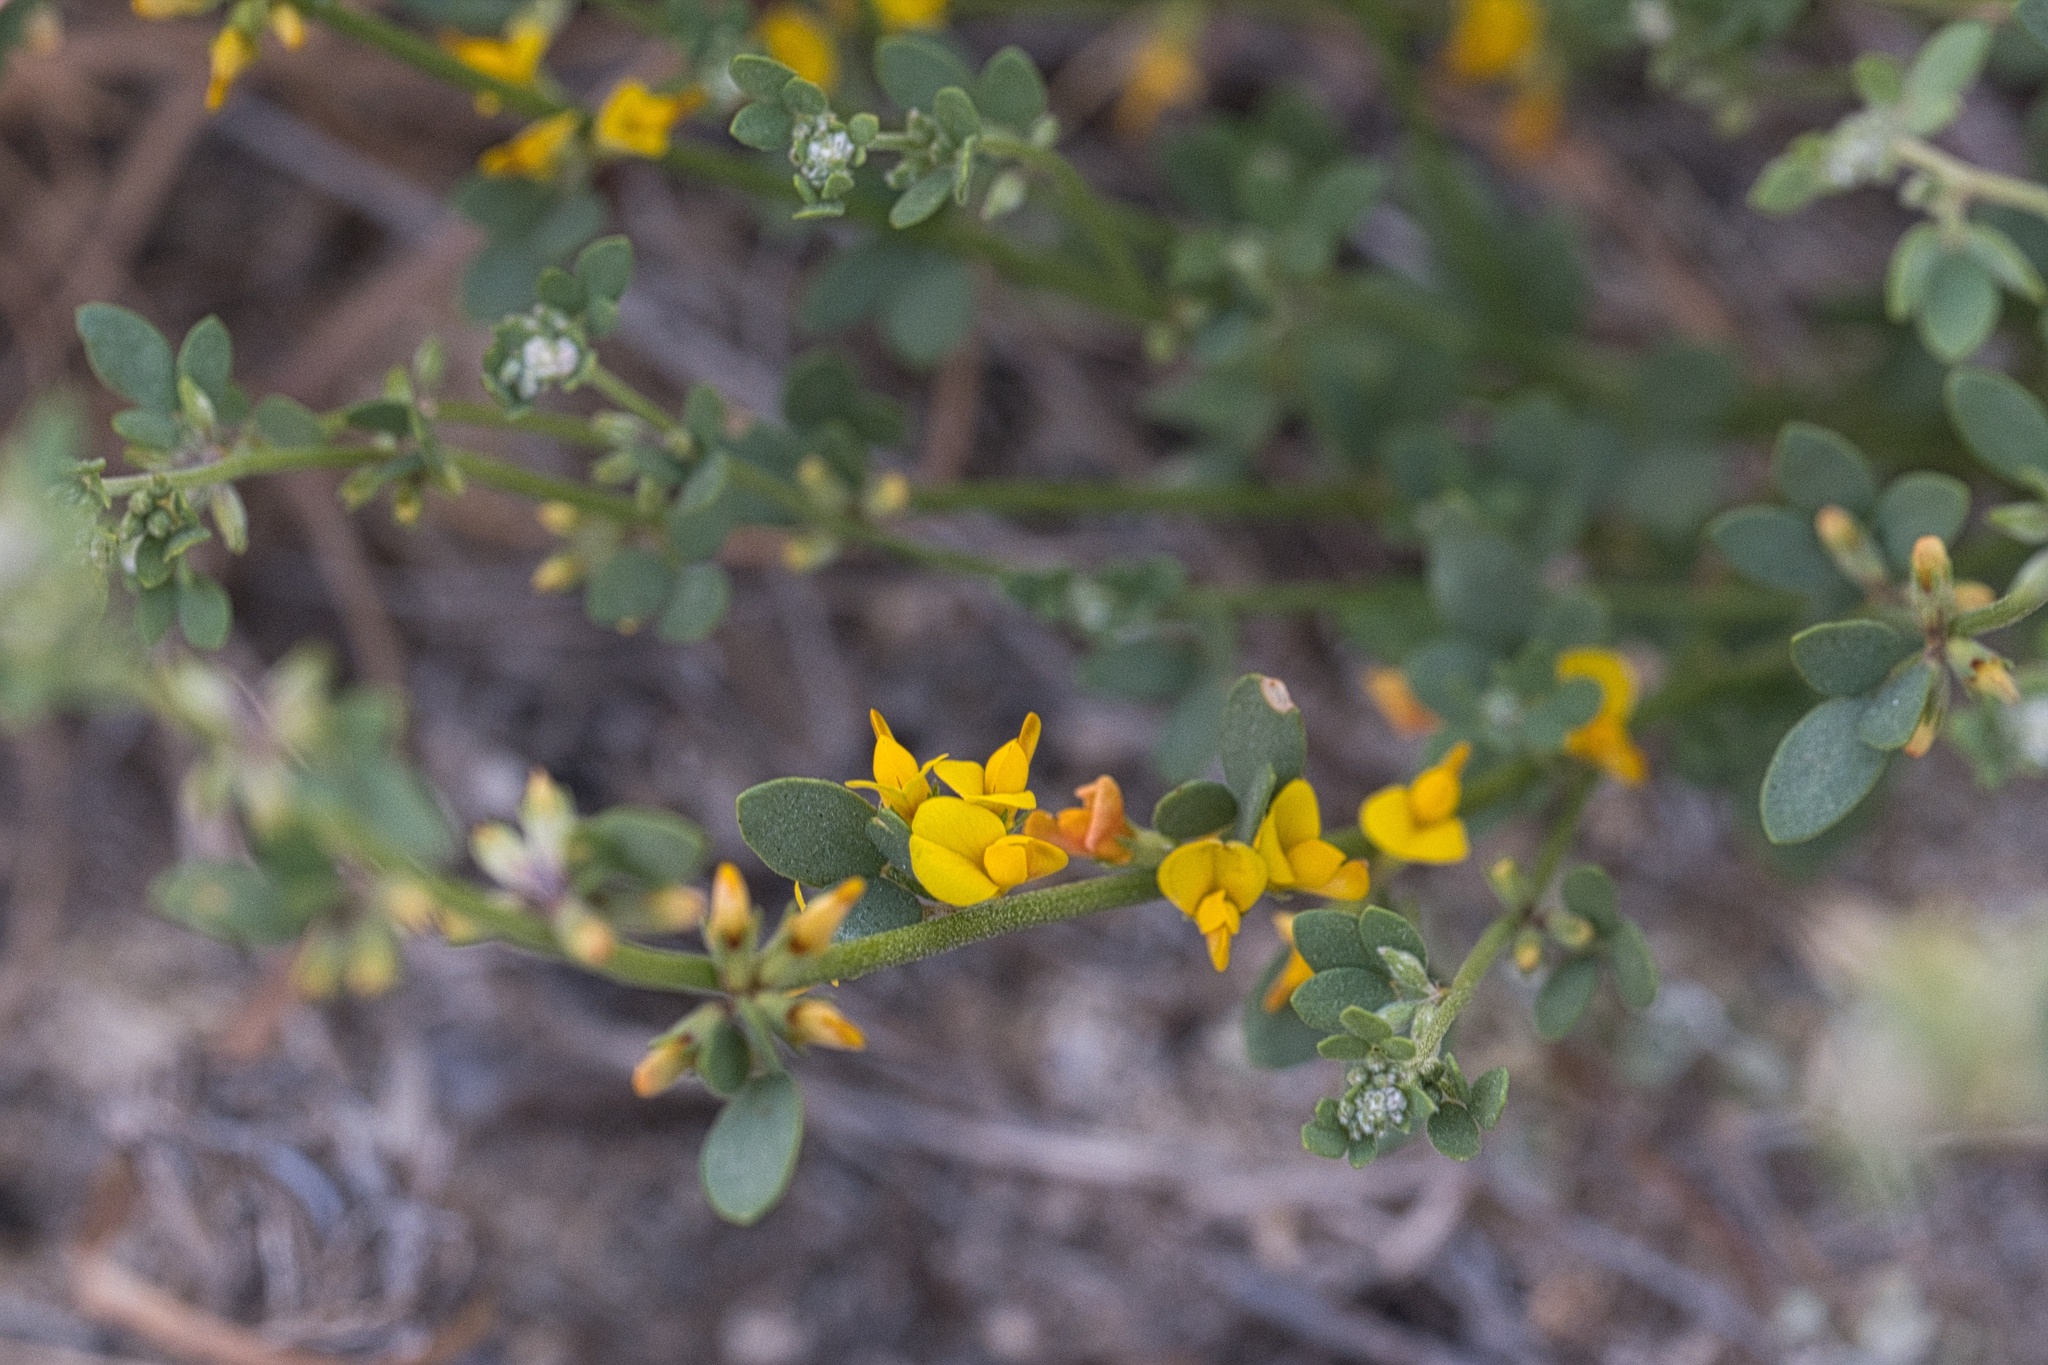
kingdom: Plantae
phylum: Tracheophyta
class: Magnoliopsida
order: Fabales
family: Fabaceae
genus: Acmispon
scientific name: Acmispon glaber
